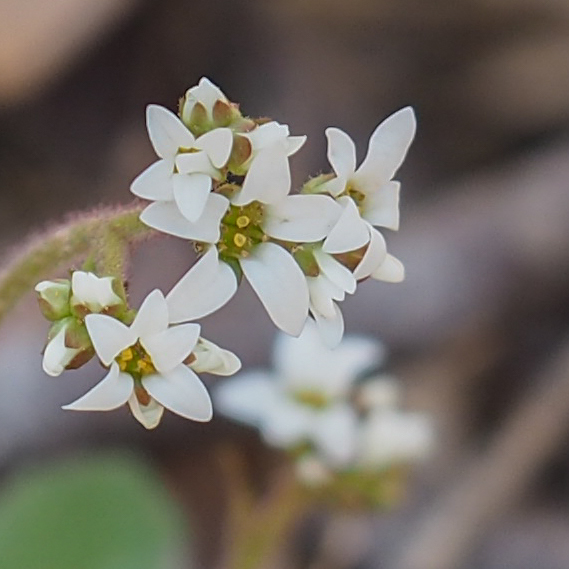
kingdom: Plantae
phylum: Tracheophyta
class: Magnoliopsida
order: Saxifragales
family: Saxifragaceae
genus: Micranthes
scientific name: Micranthes virginiensis
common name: Early saxifrage
